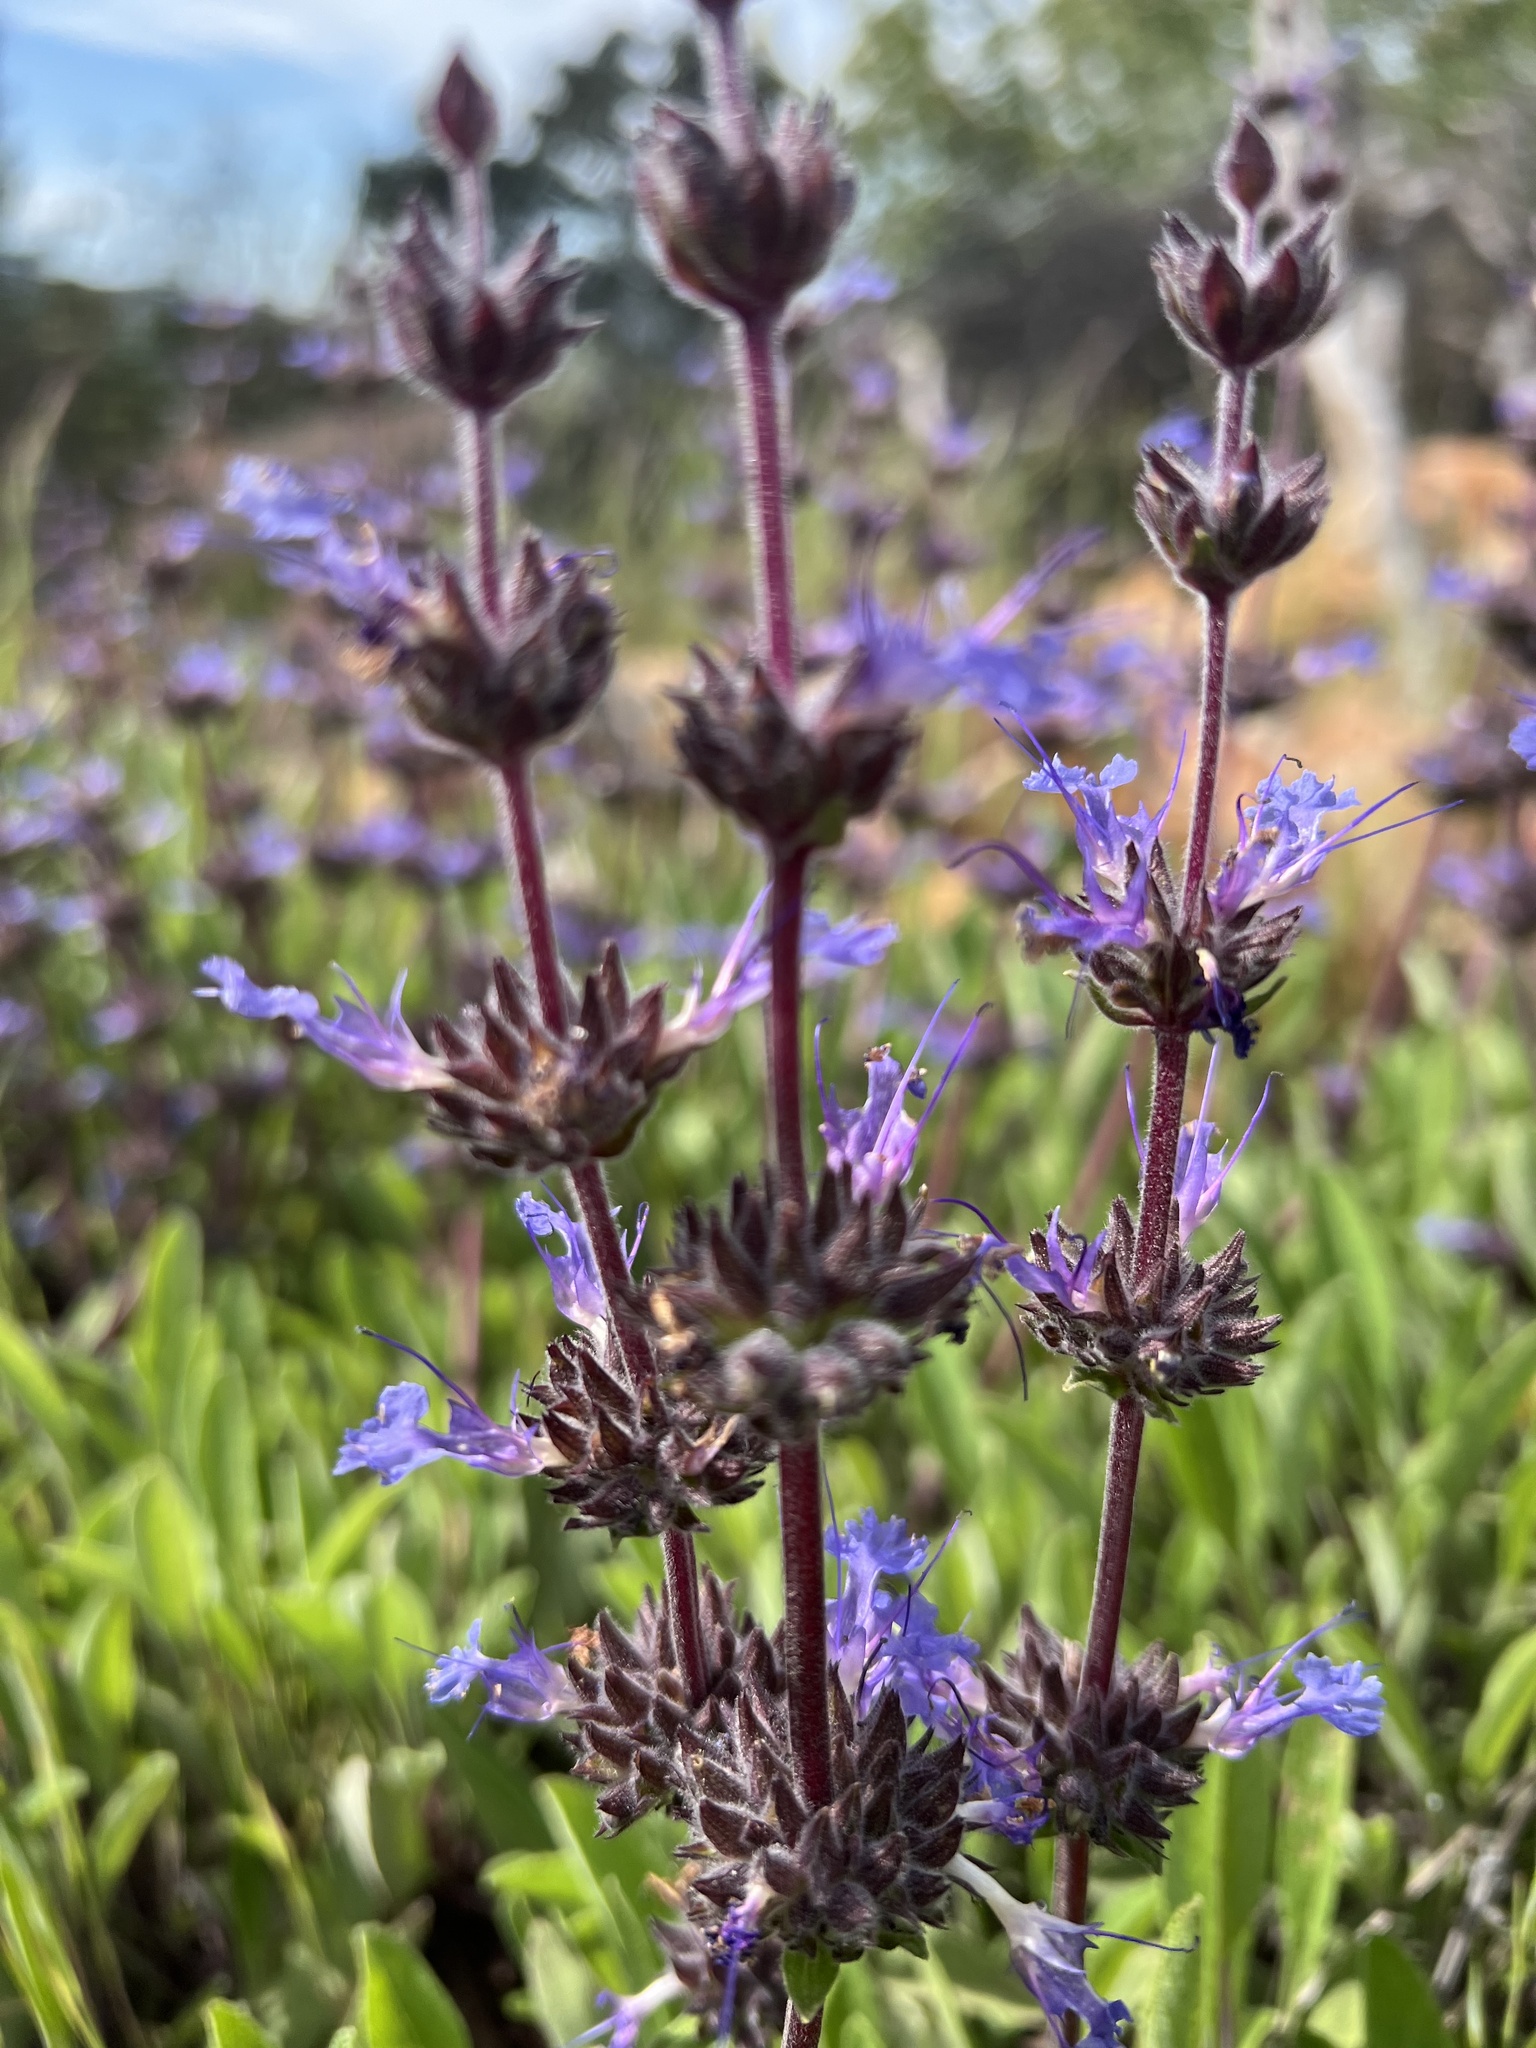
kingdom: Plantae
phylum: Tracheophyta
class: Magnoliopsida
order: Lamiales
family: Lamiaceae
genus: Salvia
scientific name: Salvia sonomensis
